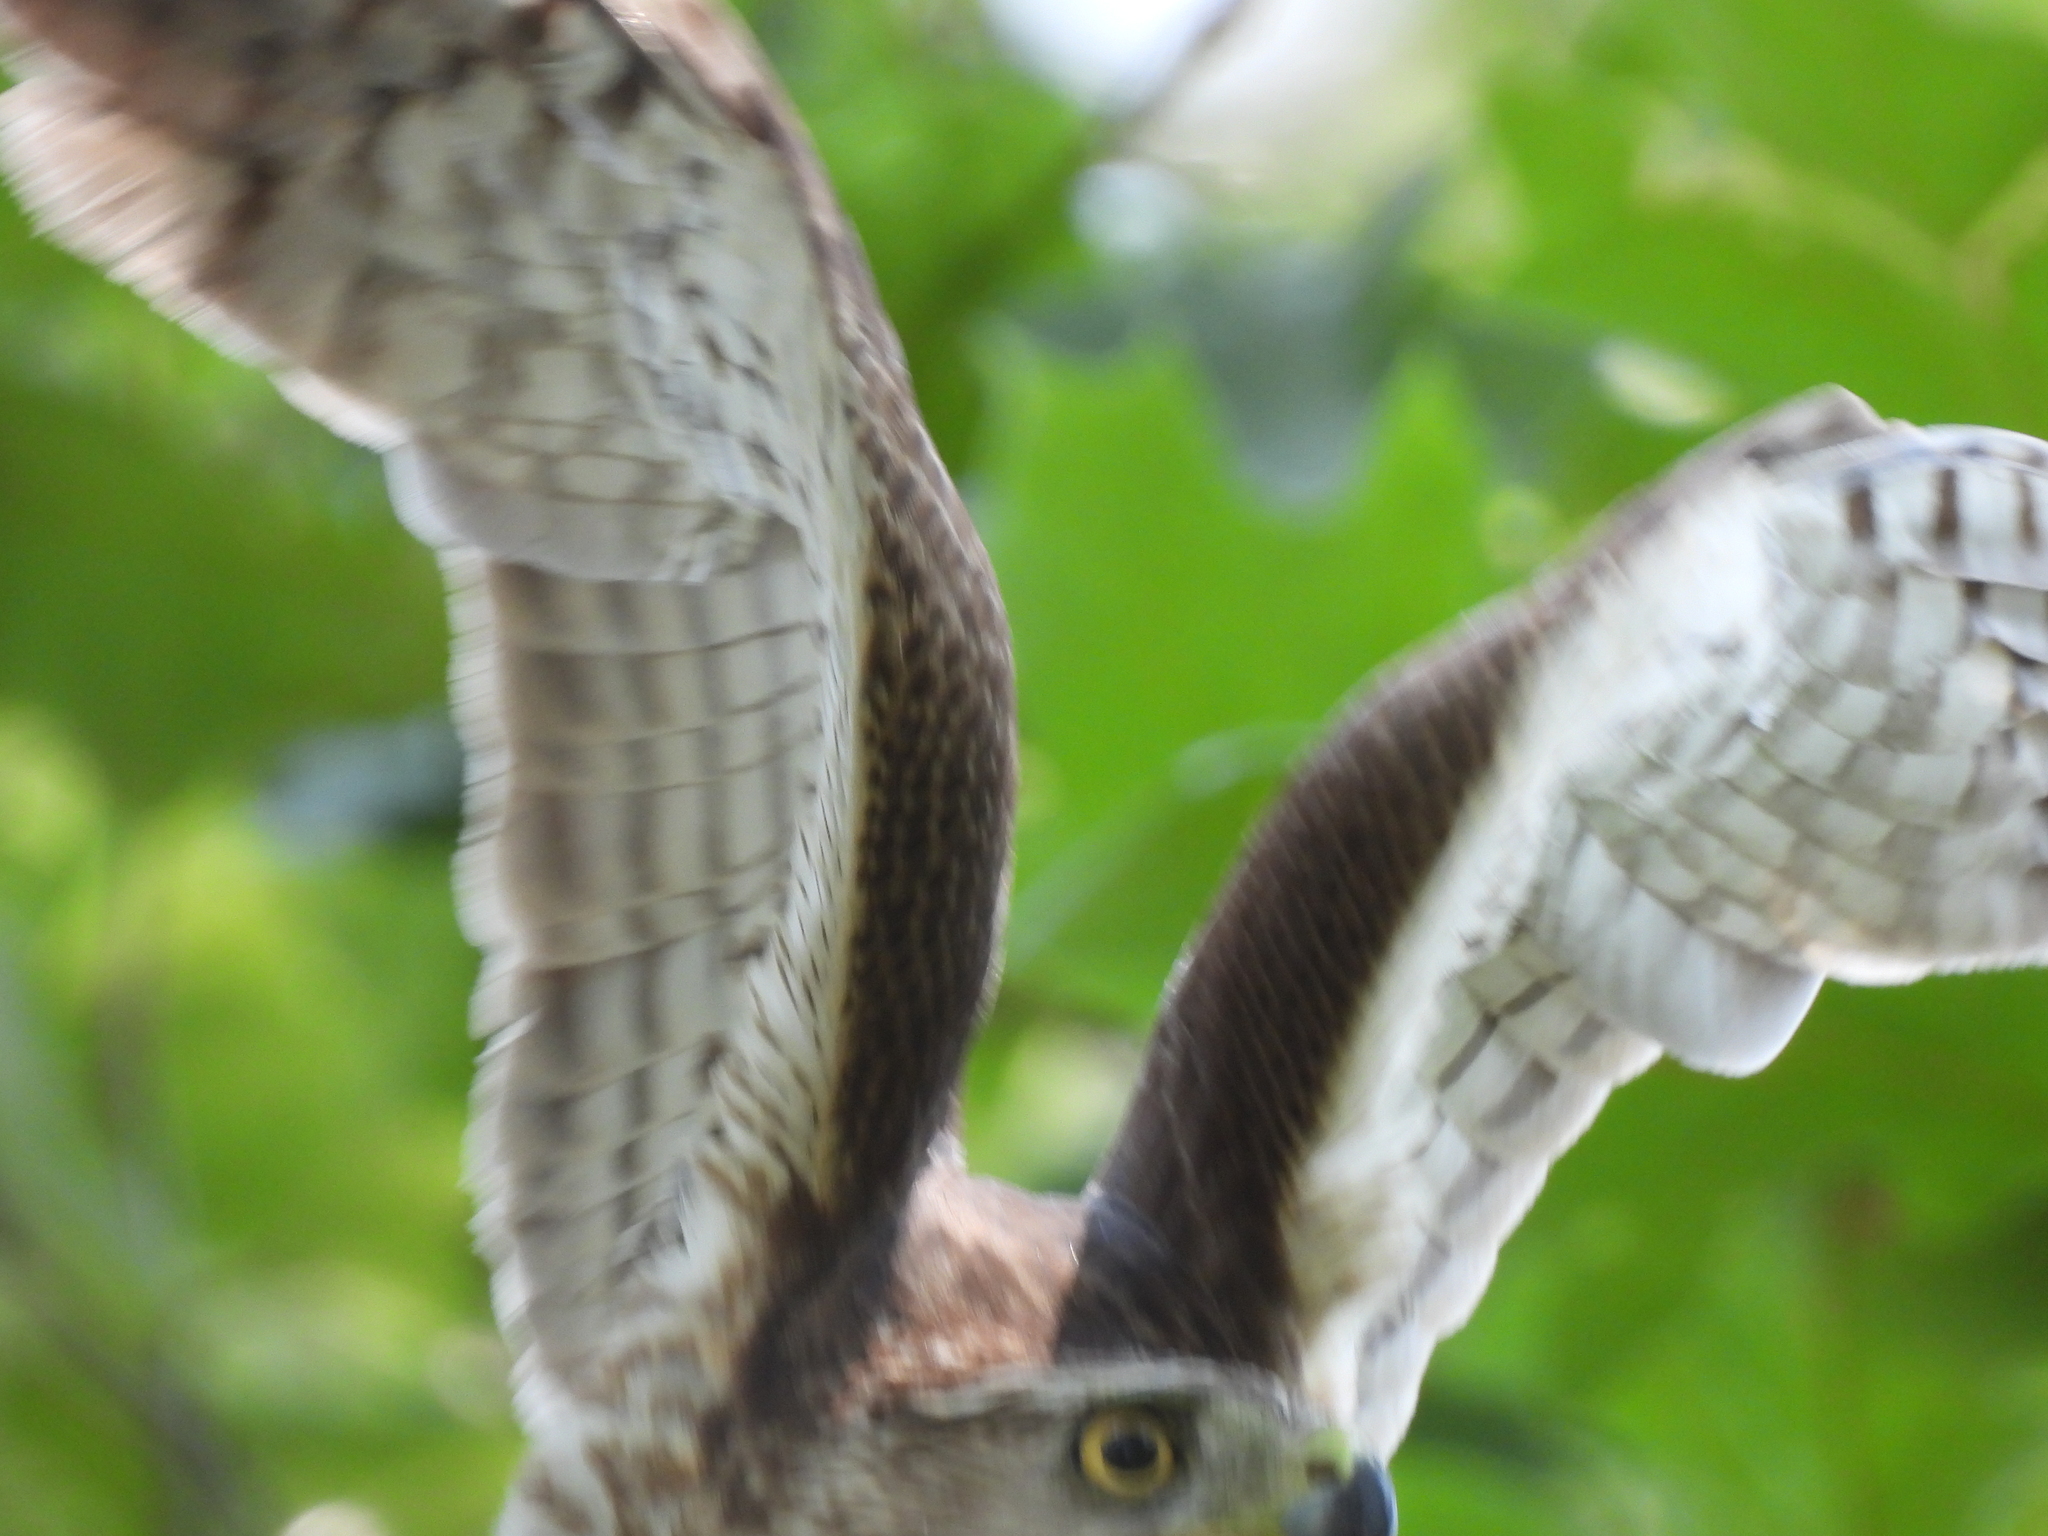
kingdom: Animalia
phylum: Chordata
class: Aves
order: Accipitriformes
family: Accipitridae
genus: Accipiter
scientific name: Accipiter cooperii
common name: Cooper's hawk
